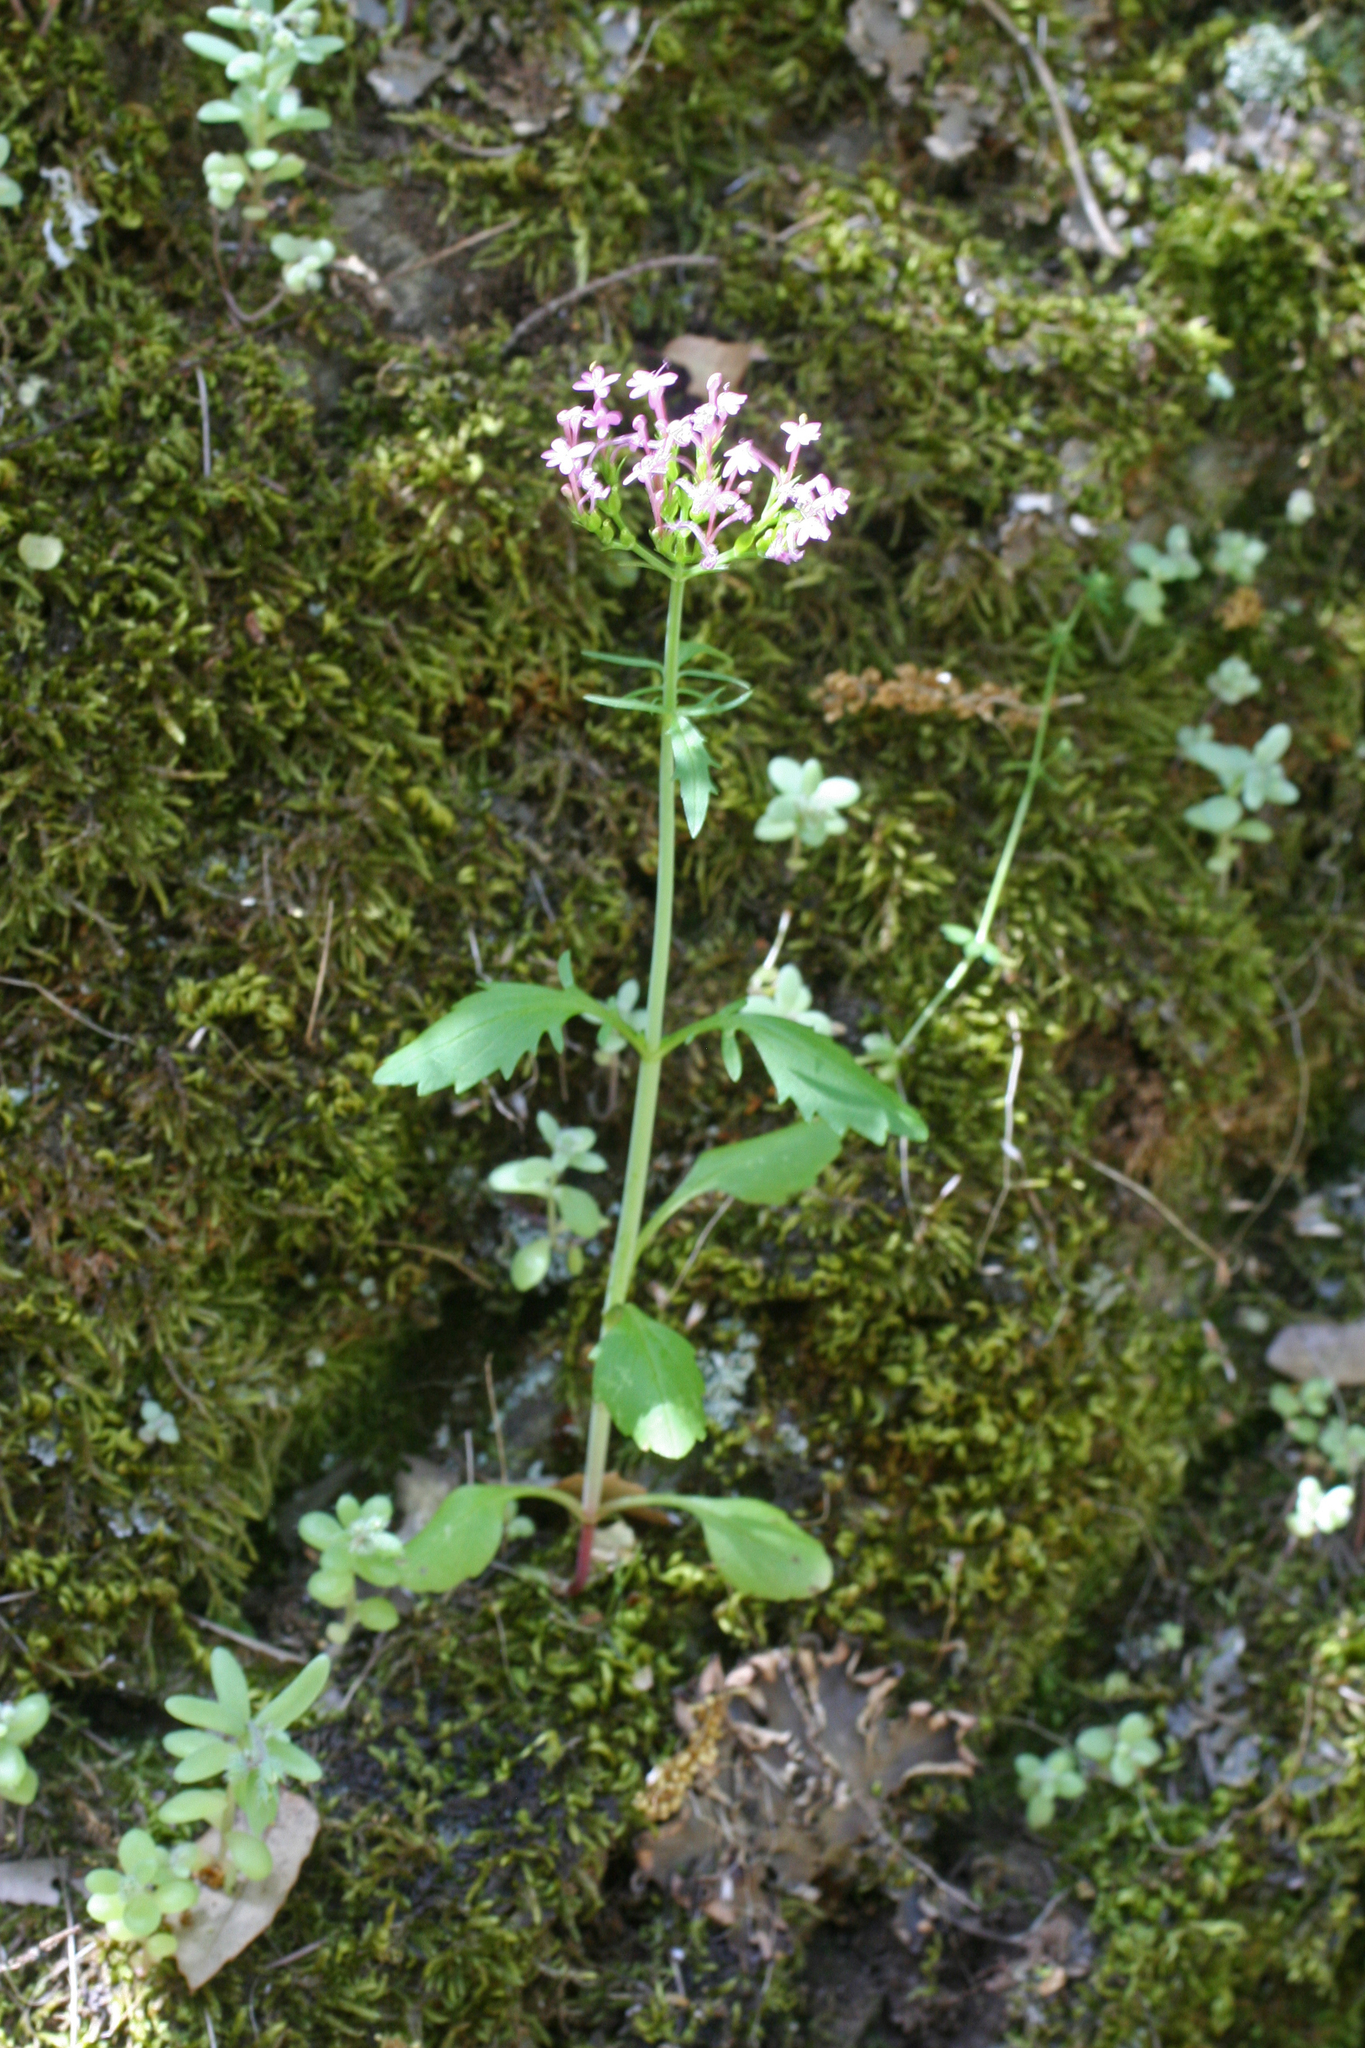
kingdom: Plantae
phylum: Tracheophyta
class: Magnoliopsida
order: Dipsacales
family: Caprifoliaceae
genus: Centranthus
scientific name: Centranthus calcitrapae
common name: Annual valerian
